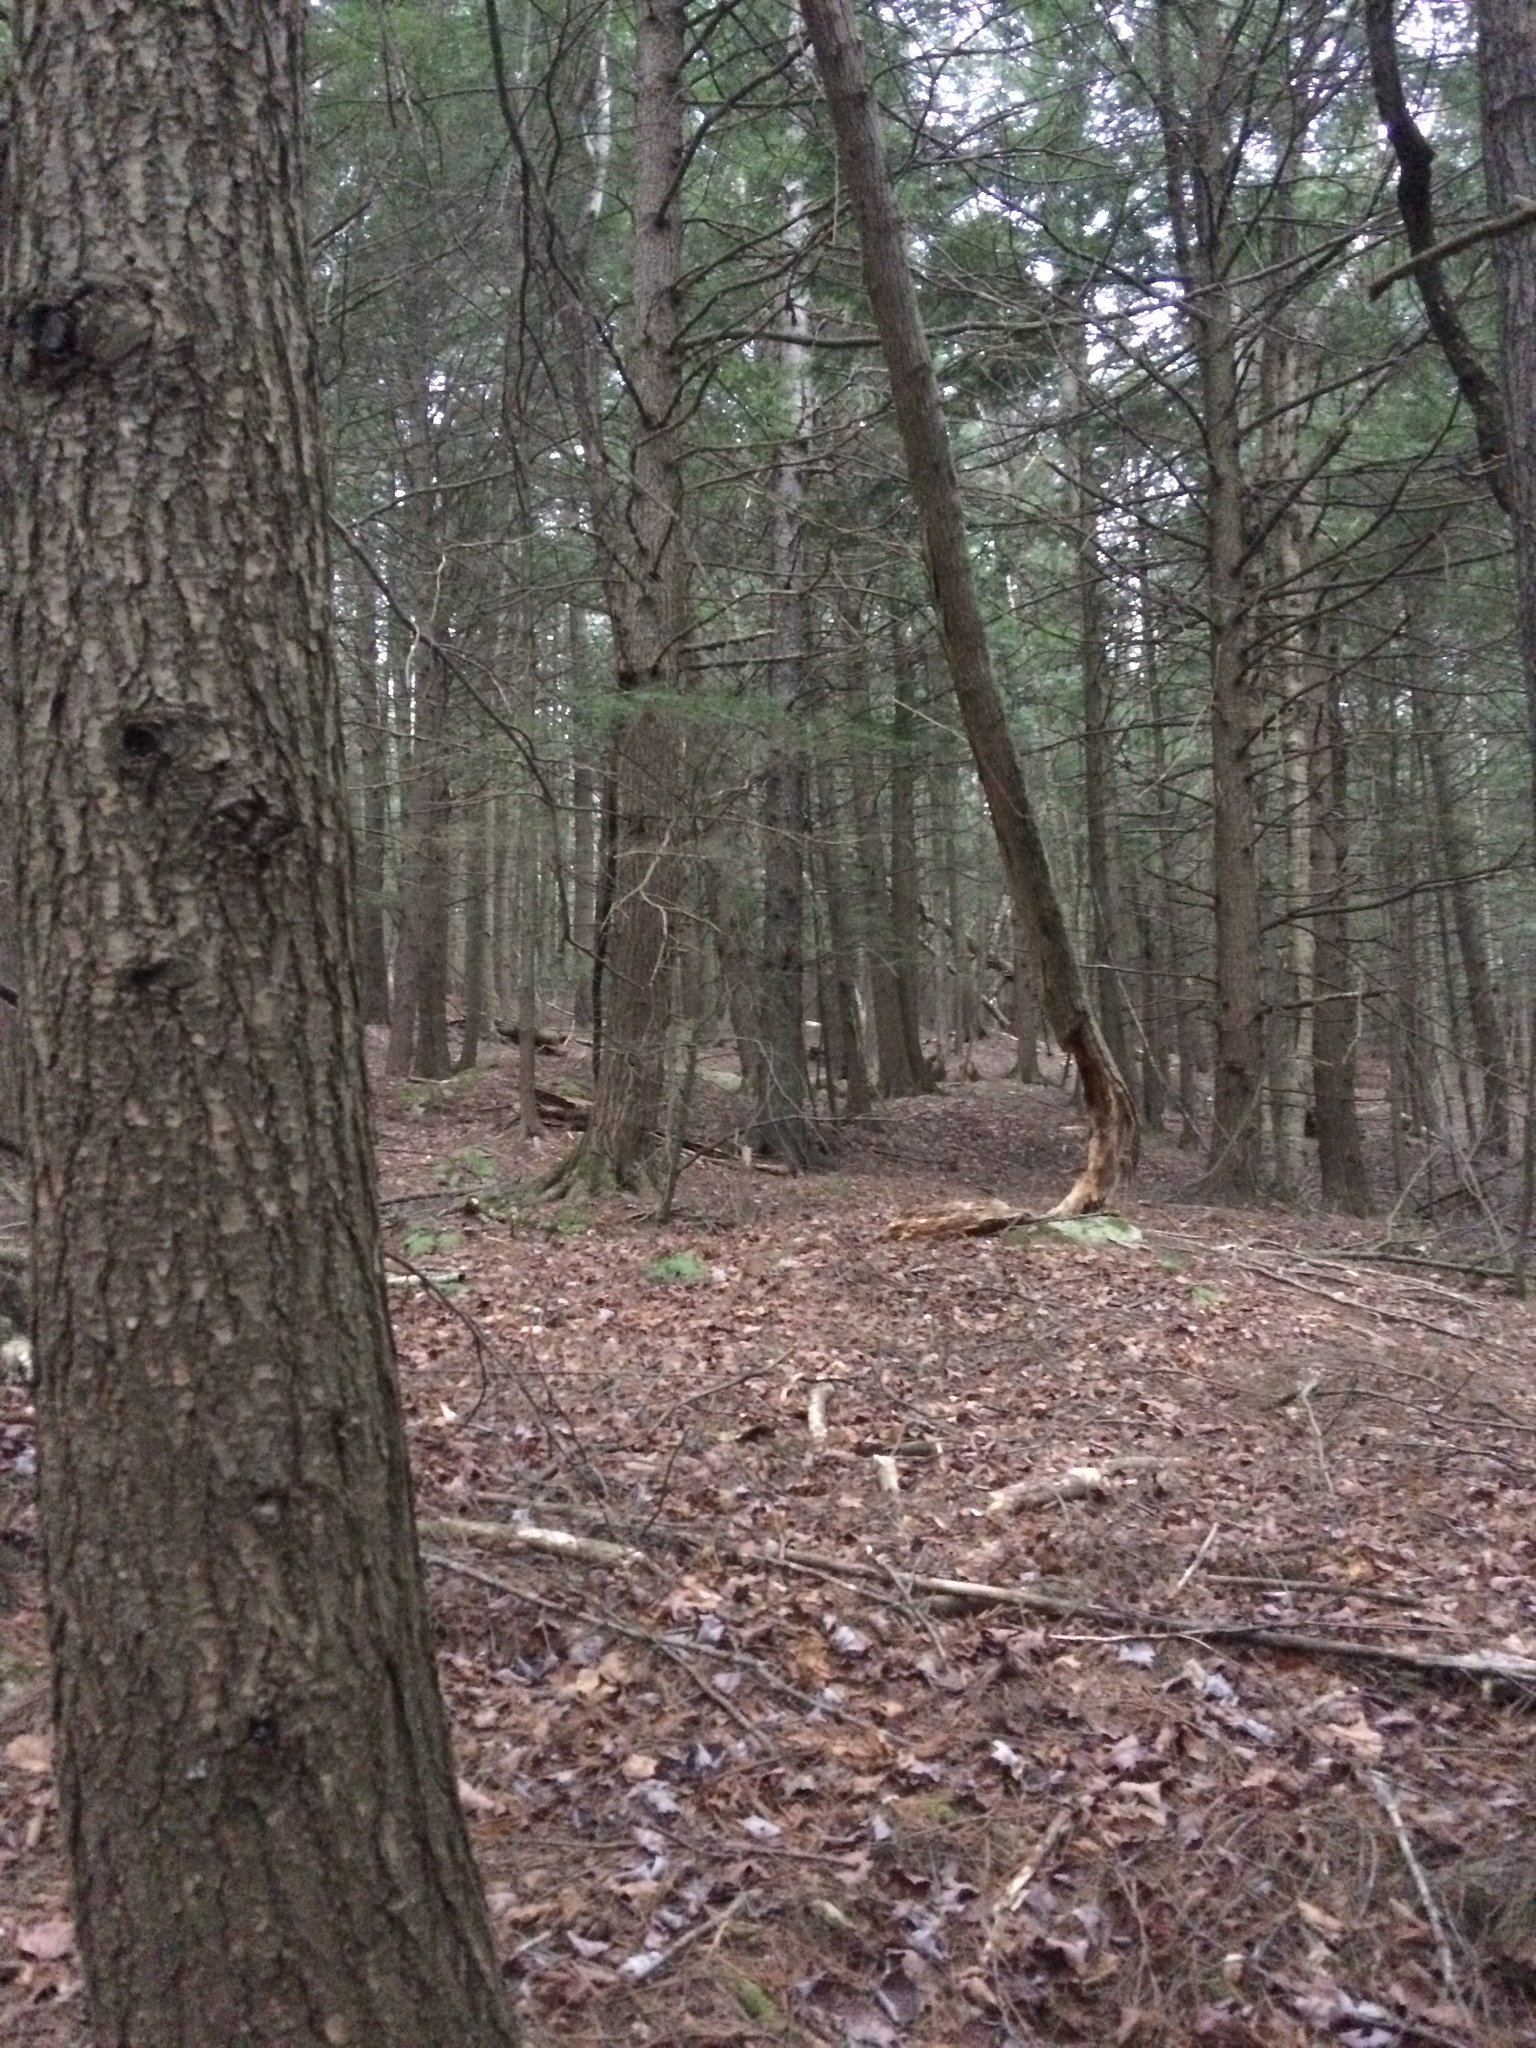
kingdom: Plantae
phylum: Tracheophyta
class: Pinopsida
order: Pinales
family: Pinaceae
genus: Tsuga
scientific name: Tsuga canadensis
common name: Eastern hemlock
